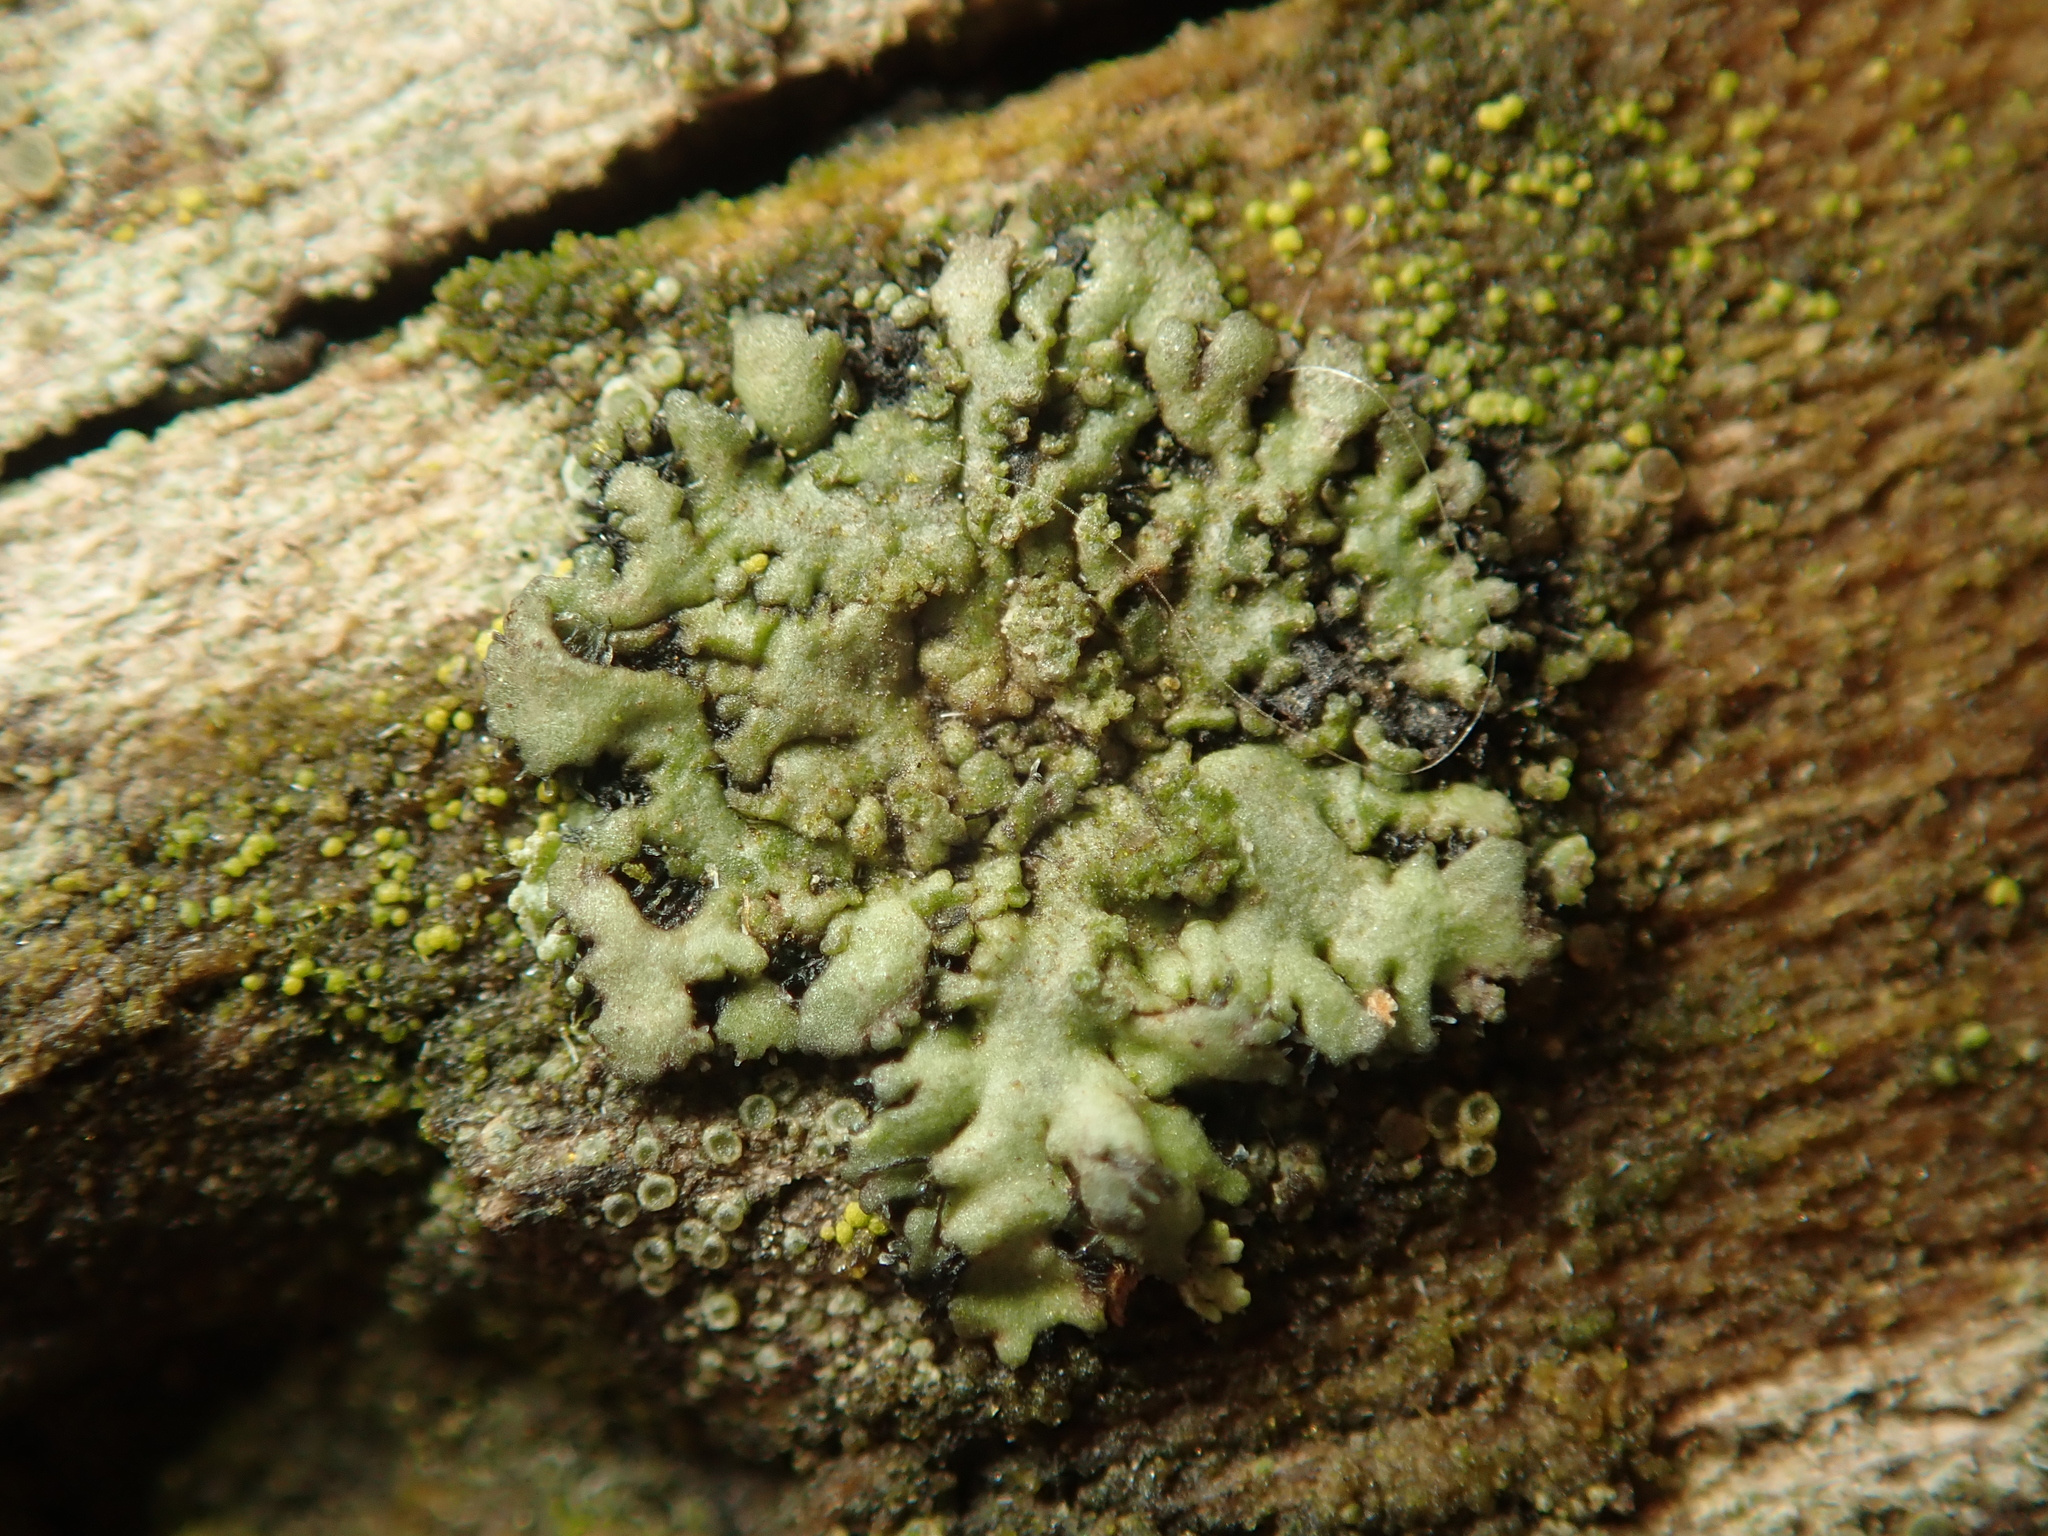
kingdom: Fungi
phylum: Ascomycota
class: Lecanoromycetes
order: Caliciales
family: Physciaceae
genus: Phaeophyscia
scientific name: Phaeophyscia orbicularis
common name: Mealy shadow lichen
